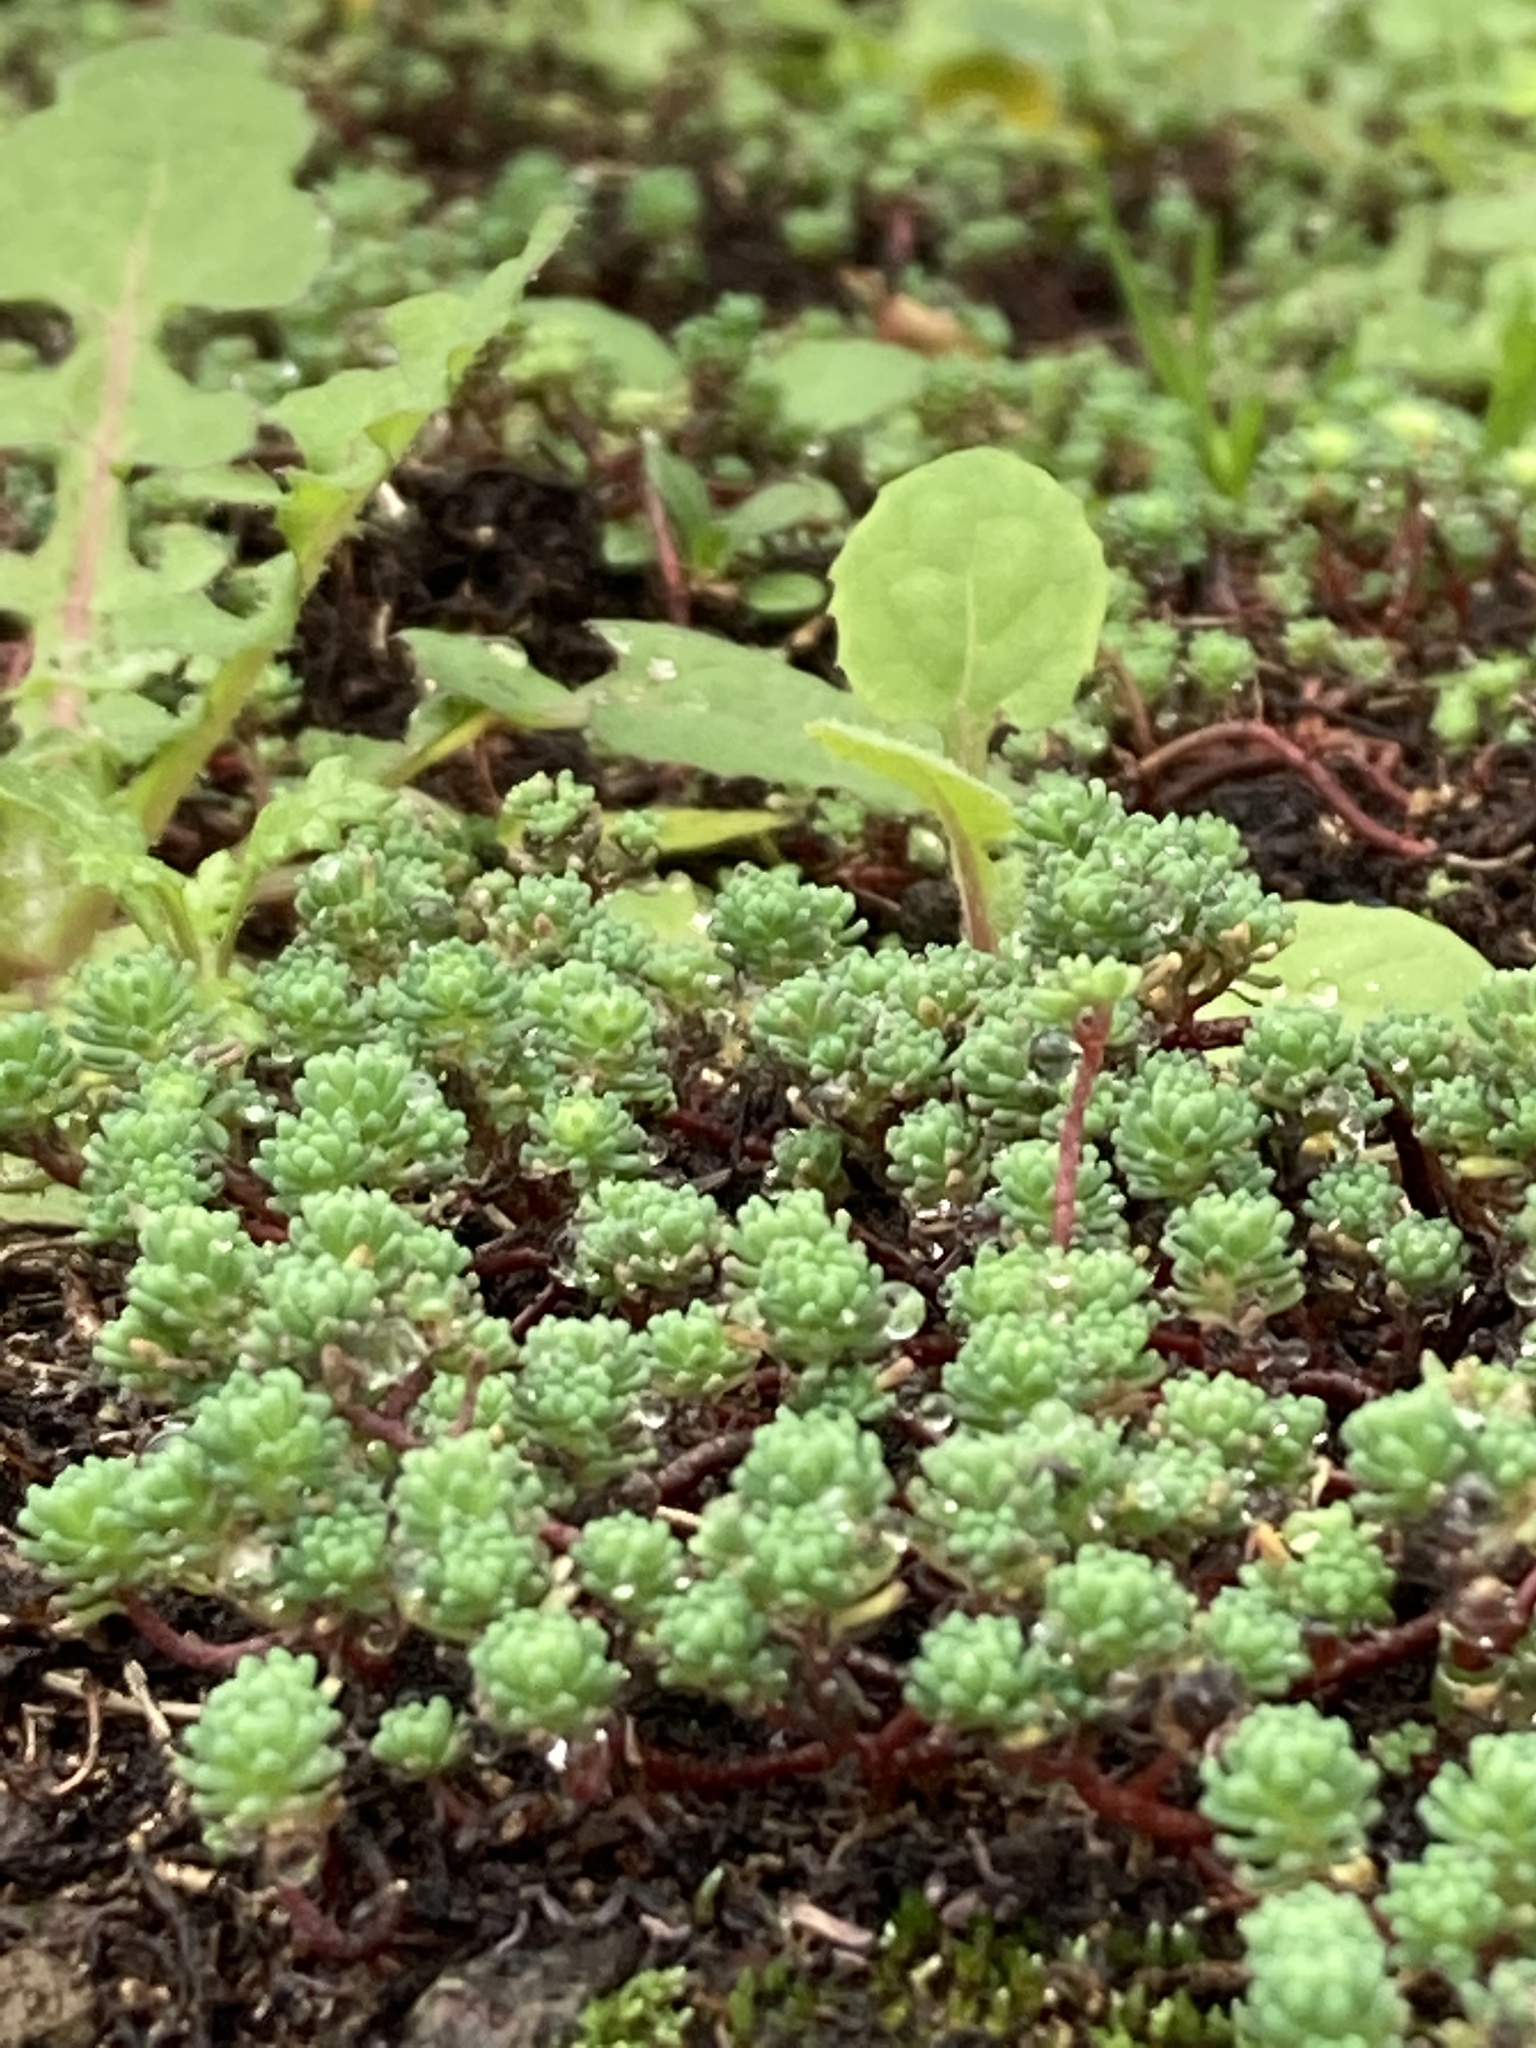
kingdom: Plantae
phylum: Tracheophyta
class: Magnoliopsida
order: Saxifragales
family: Crassulaceae
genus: Sedum
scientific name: Sedum pallidum
